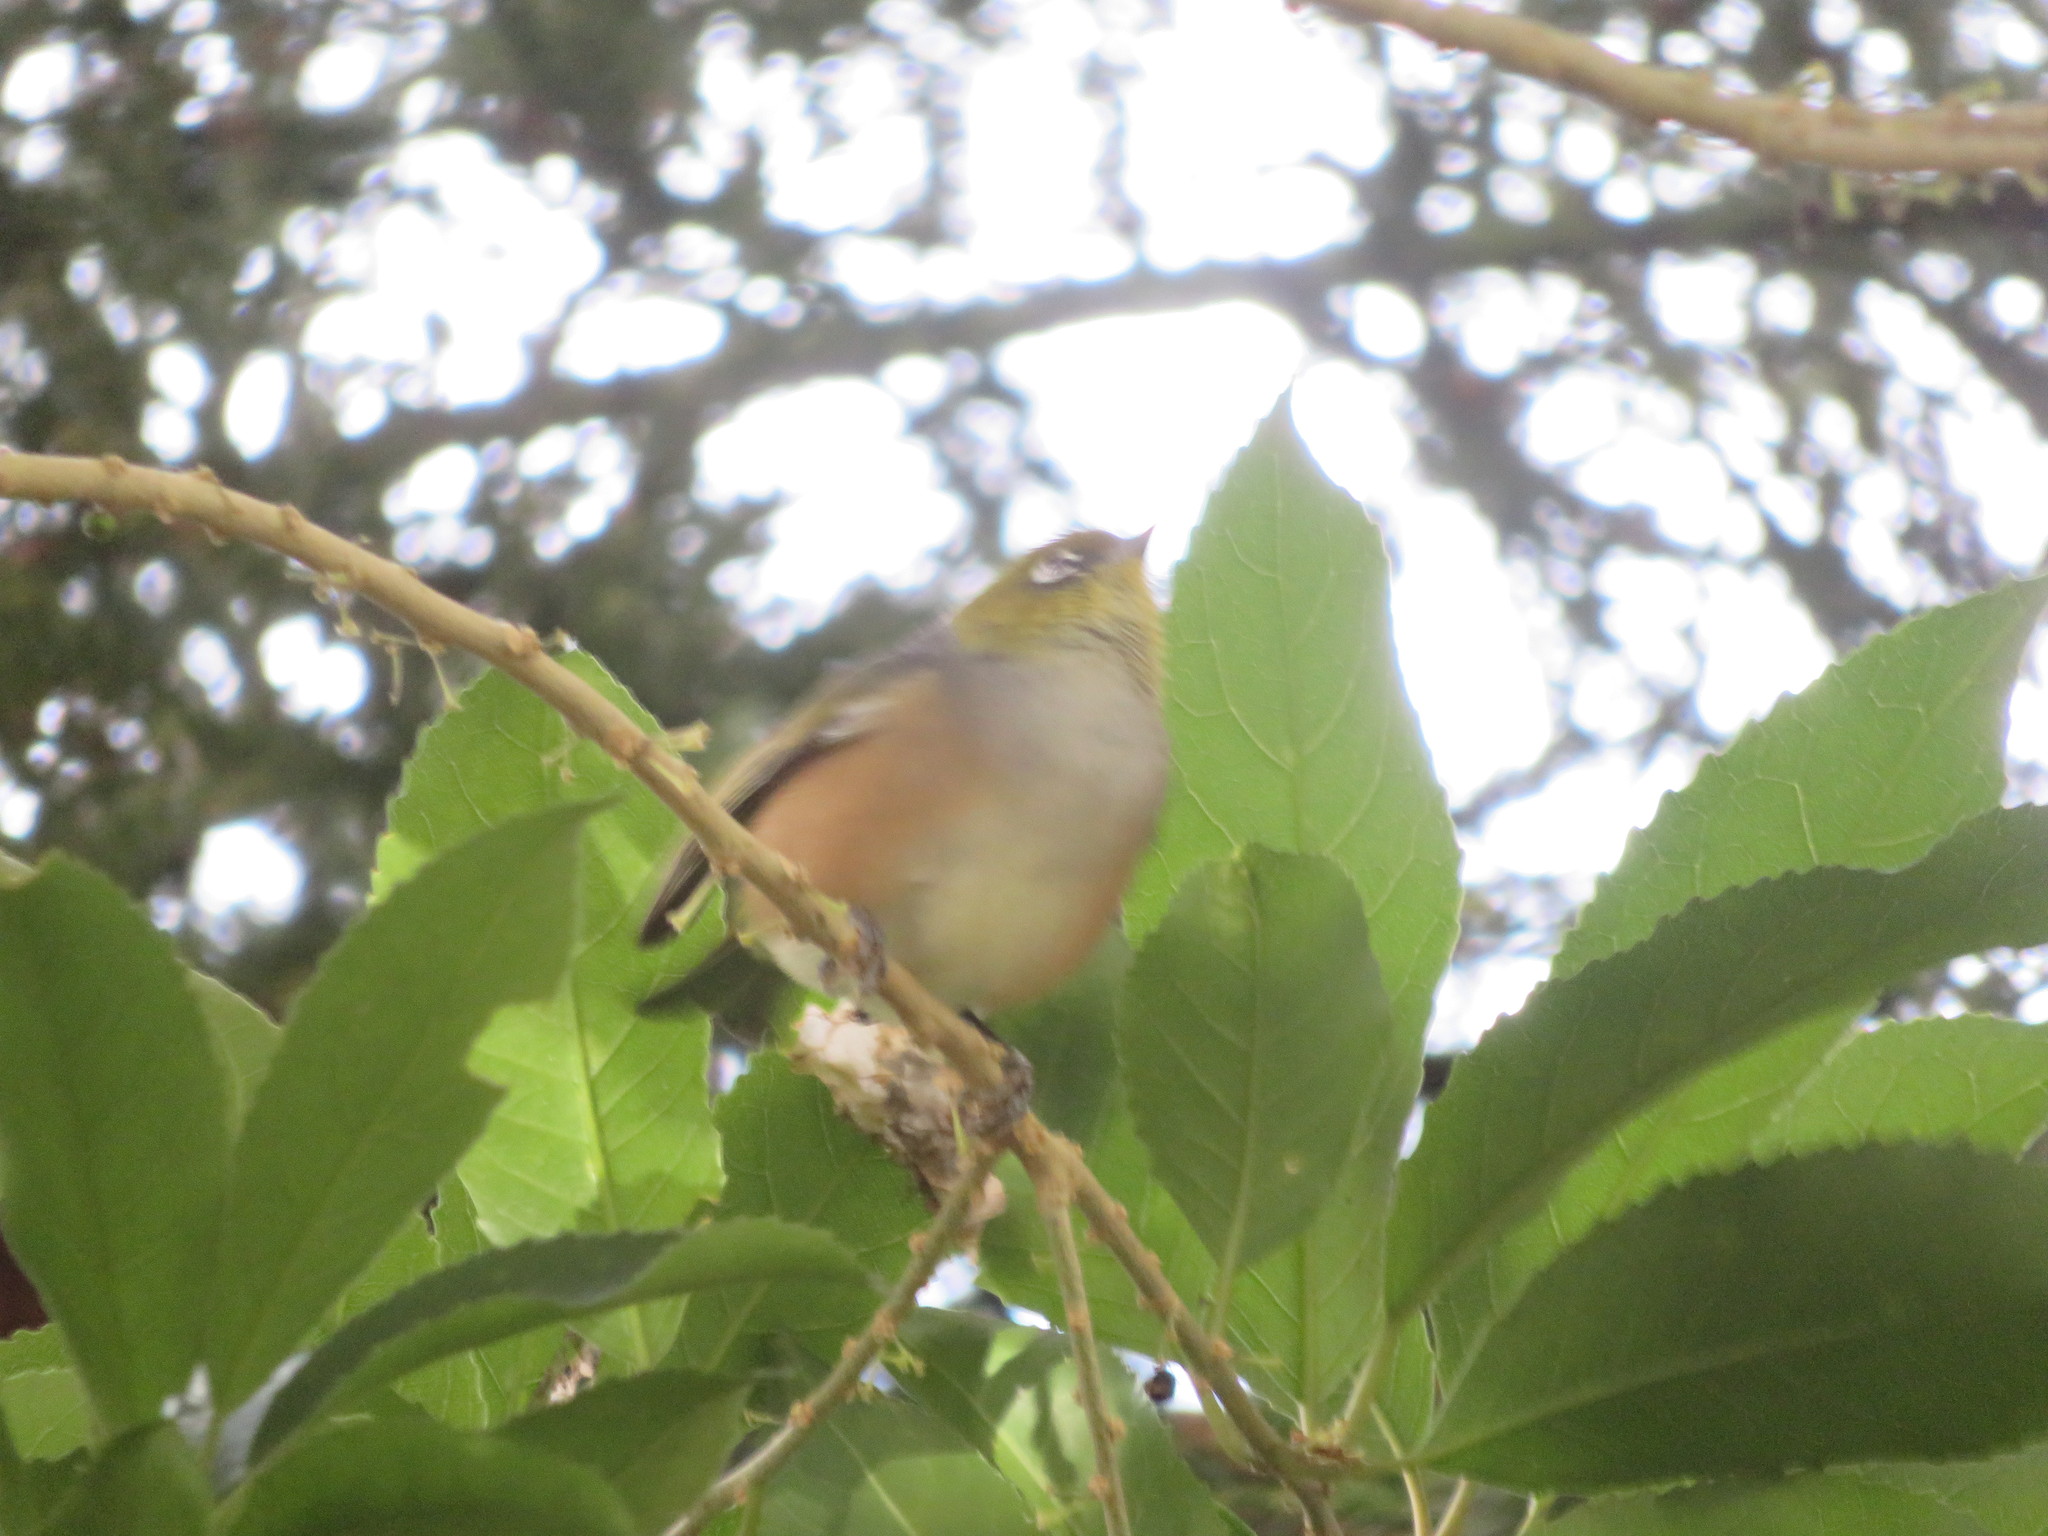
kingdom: Animalia
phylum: Chordata
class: Aves
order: Passeriformes
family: Zosteropidae
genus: Zosterops
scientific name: Zosterops lateralis
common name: Silvereye
